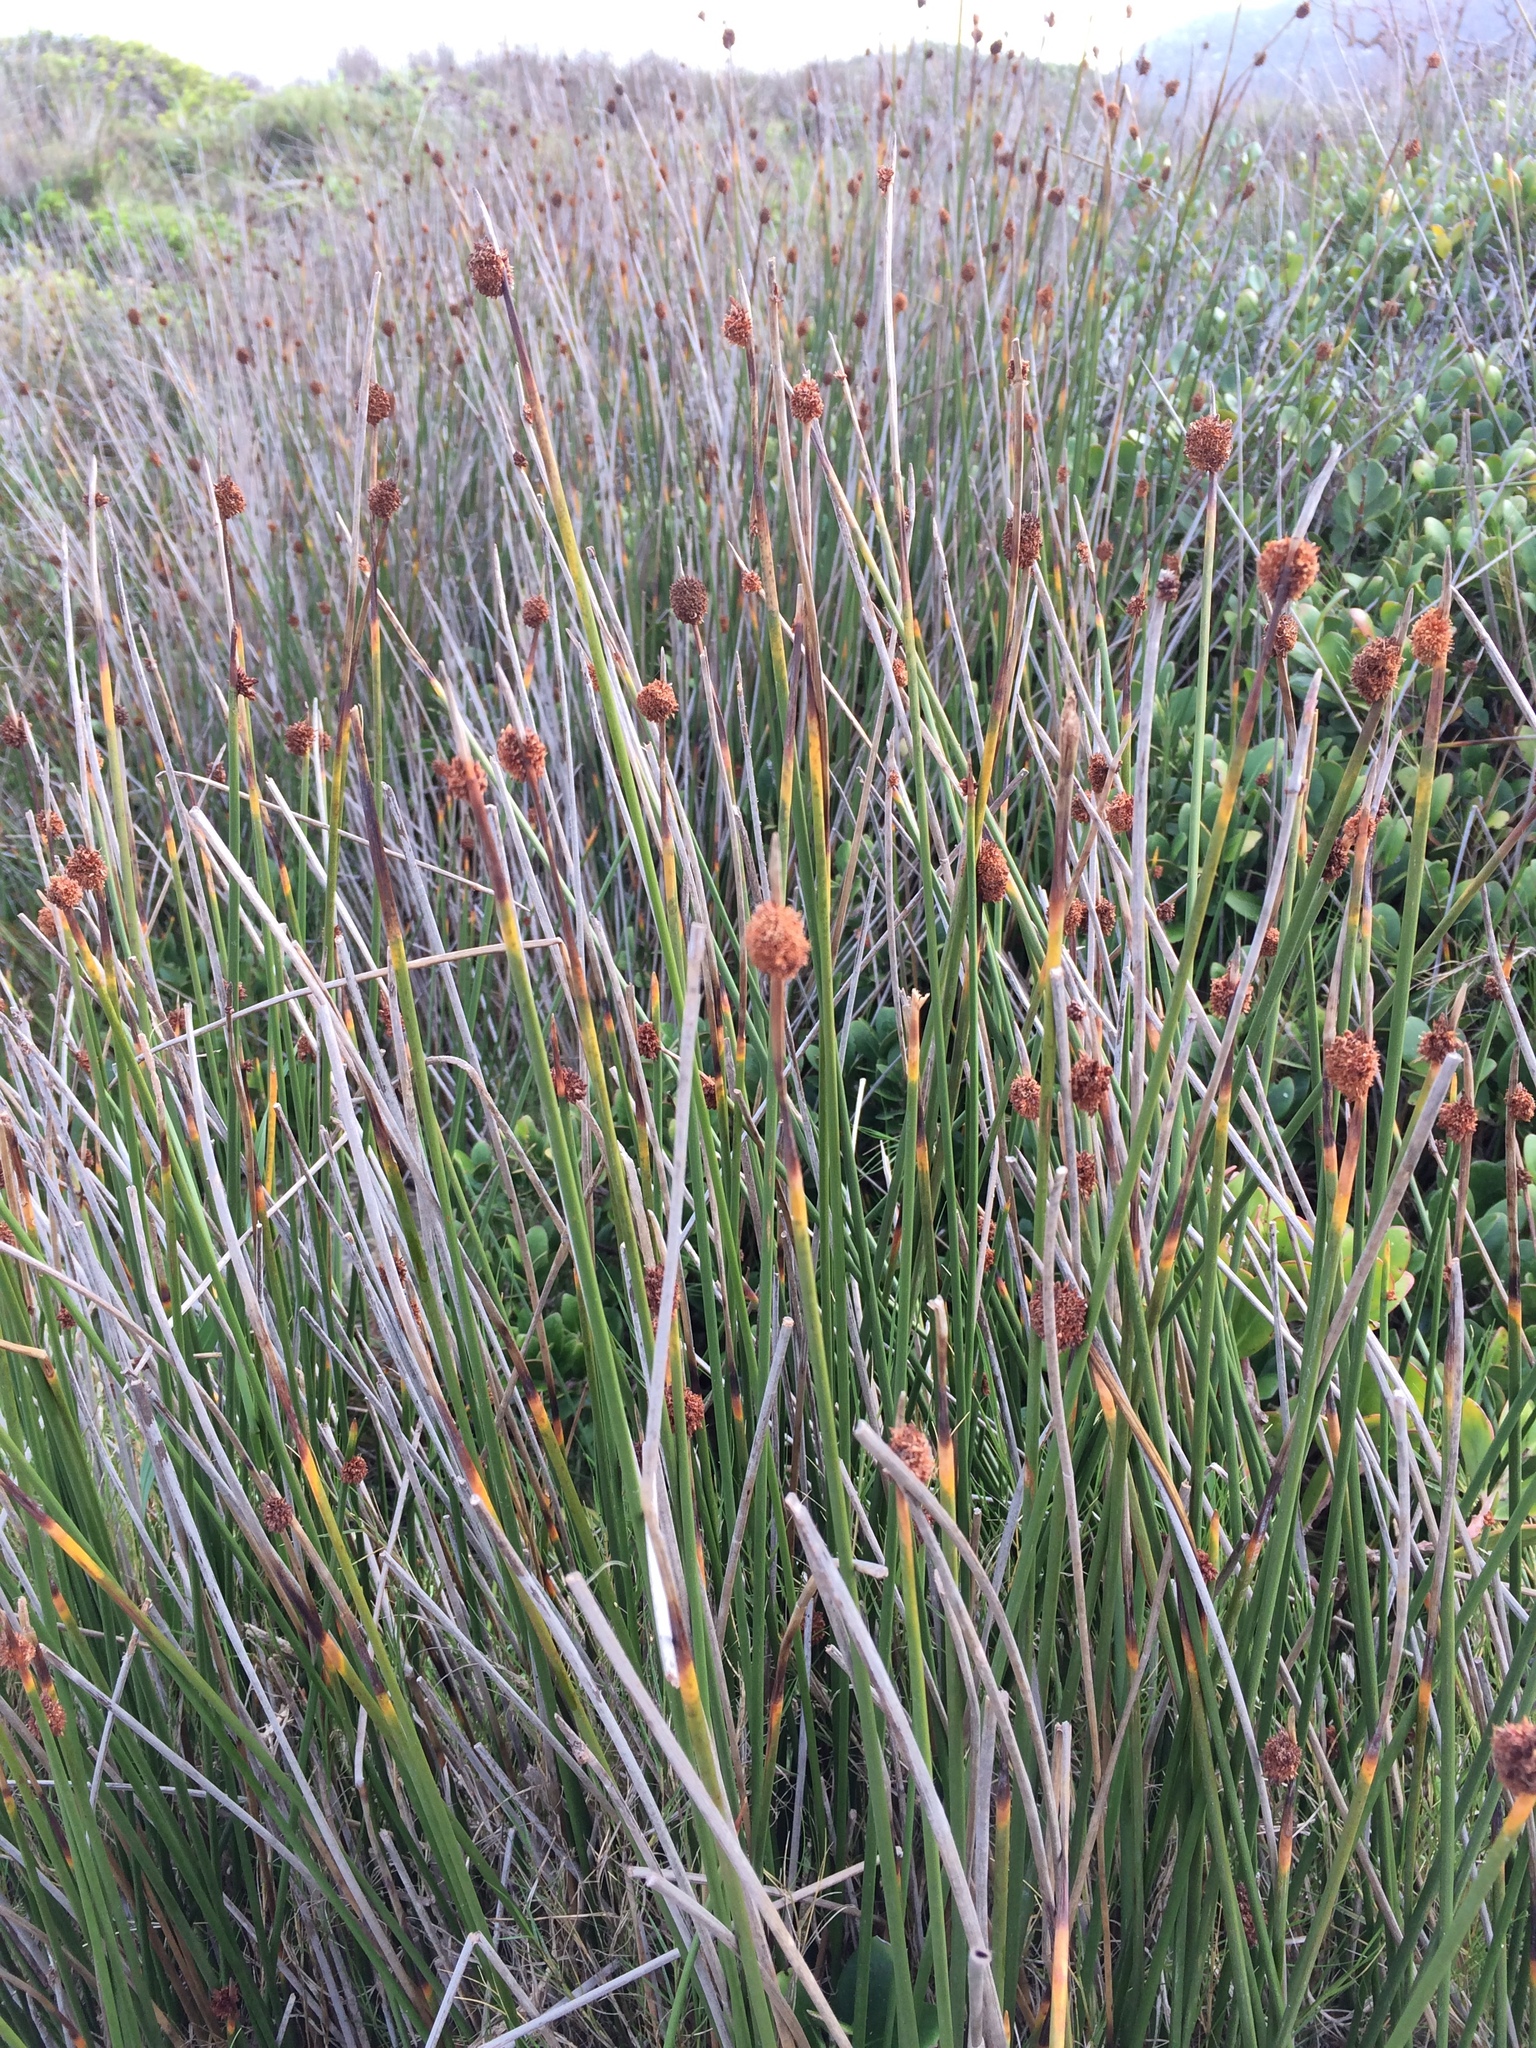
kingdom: Plantae
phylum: Tracheophyta
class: Liliopsida
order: Poales
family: Cyperaceae
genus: Ficinia
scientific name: Ficinia nodosa
